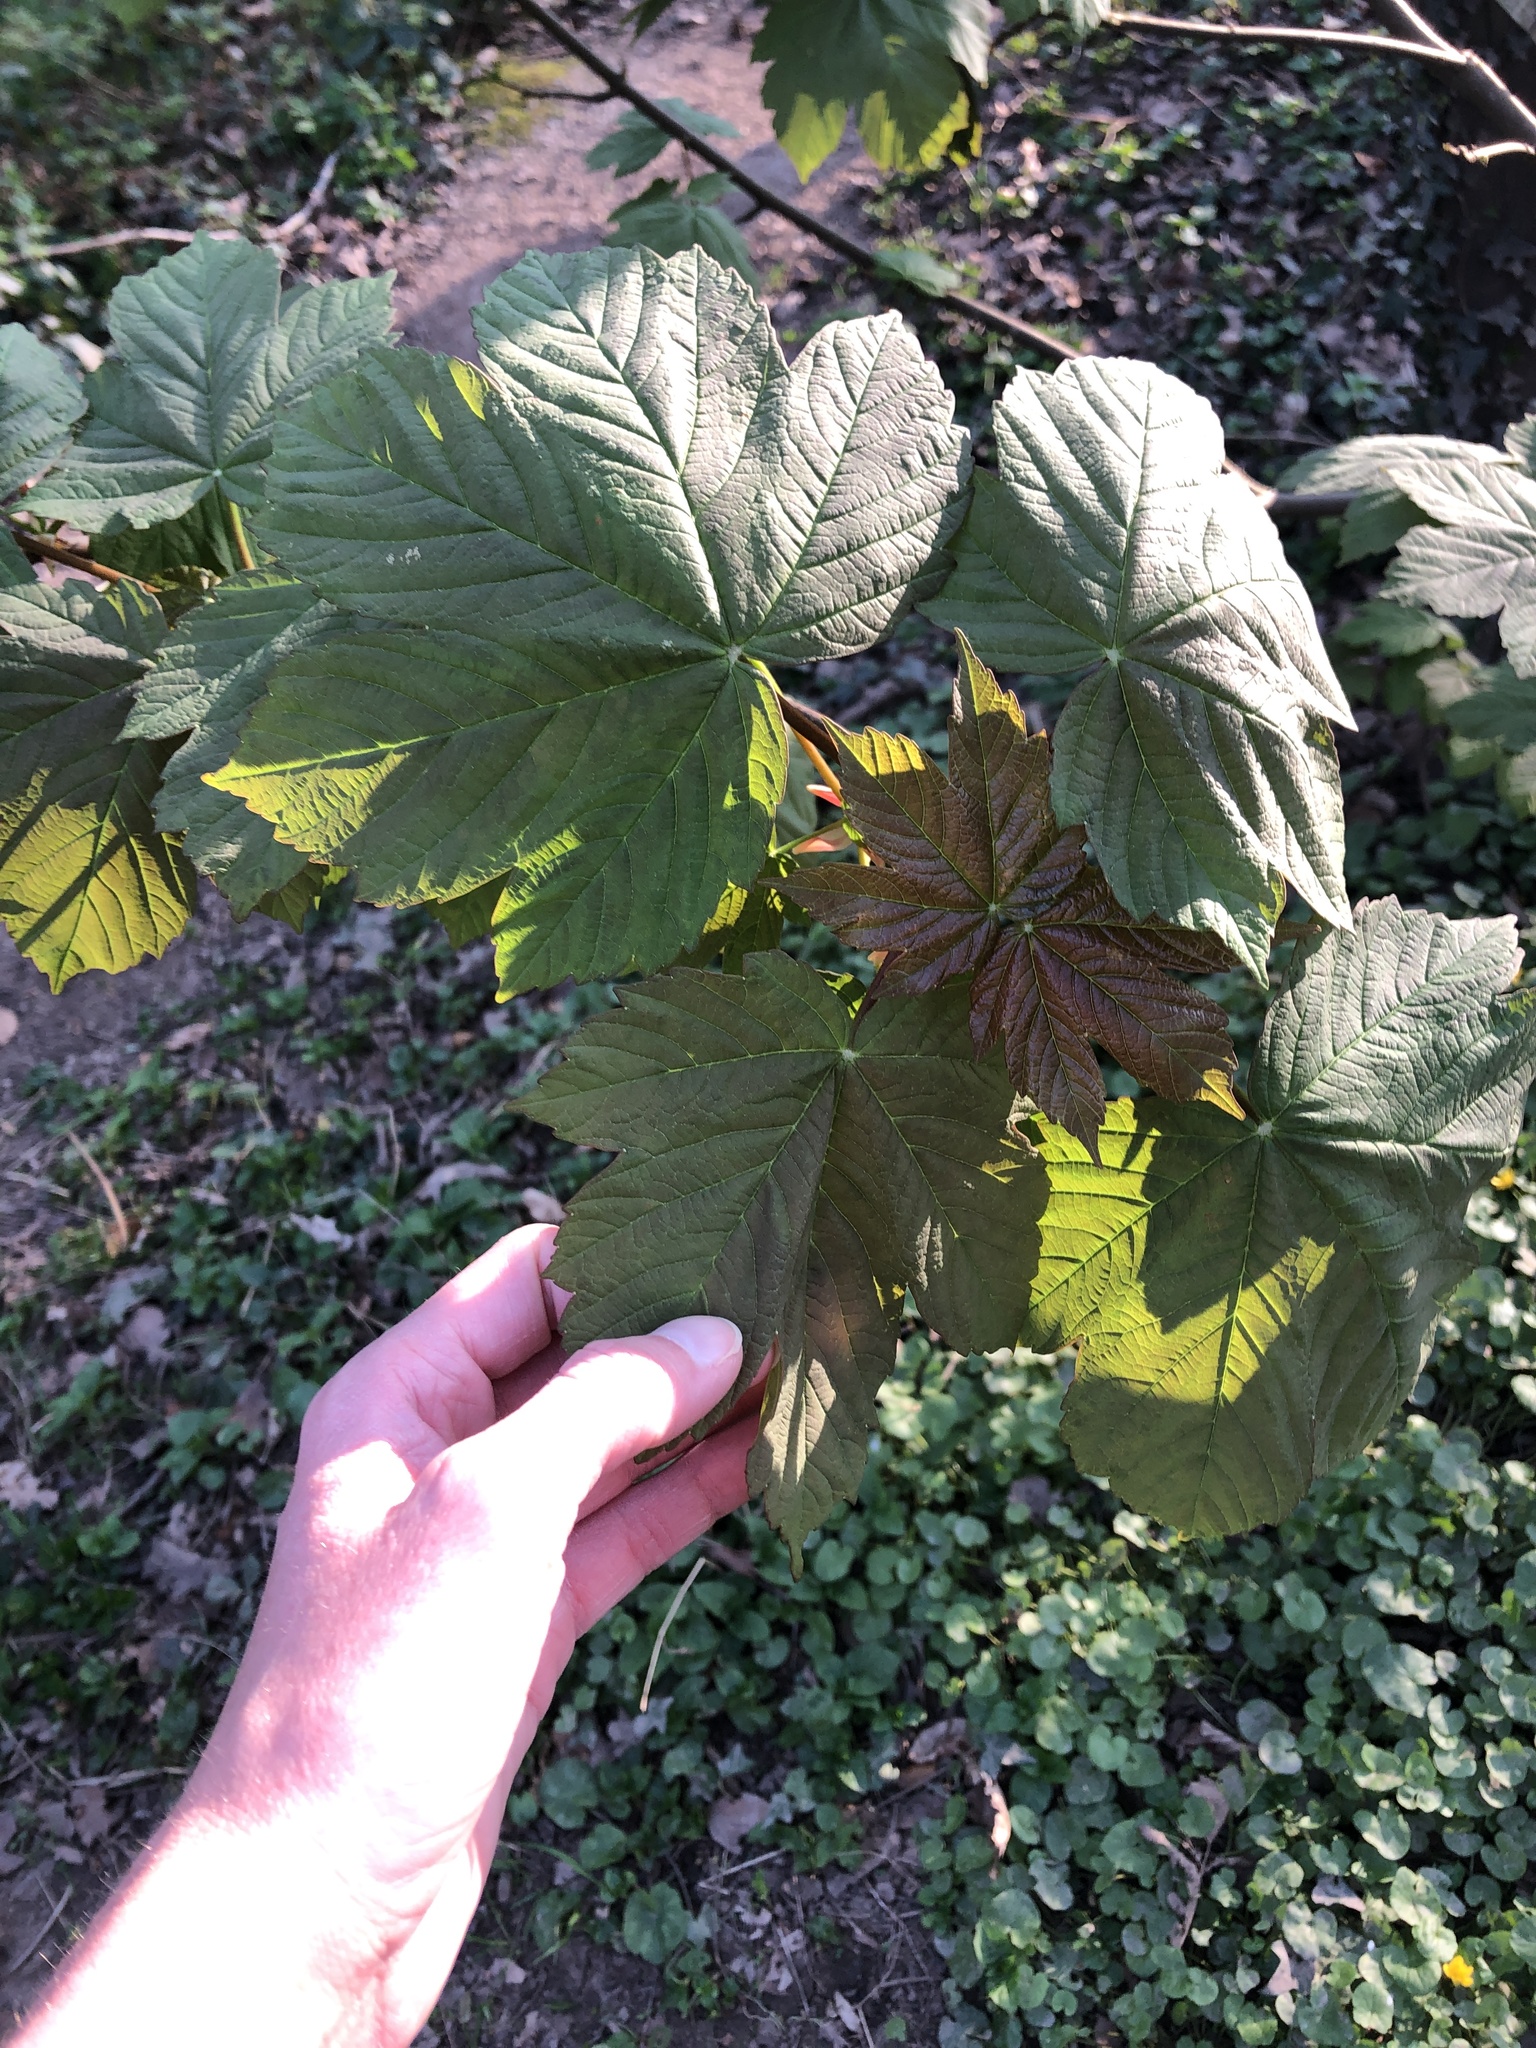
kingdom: Plantae
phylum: Tracheophyta
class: Magnoliopsida
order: Sapindales
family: Sapindaceae
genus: Acer
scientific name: Acer pseudoplatanus
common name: Sycamore
